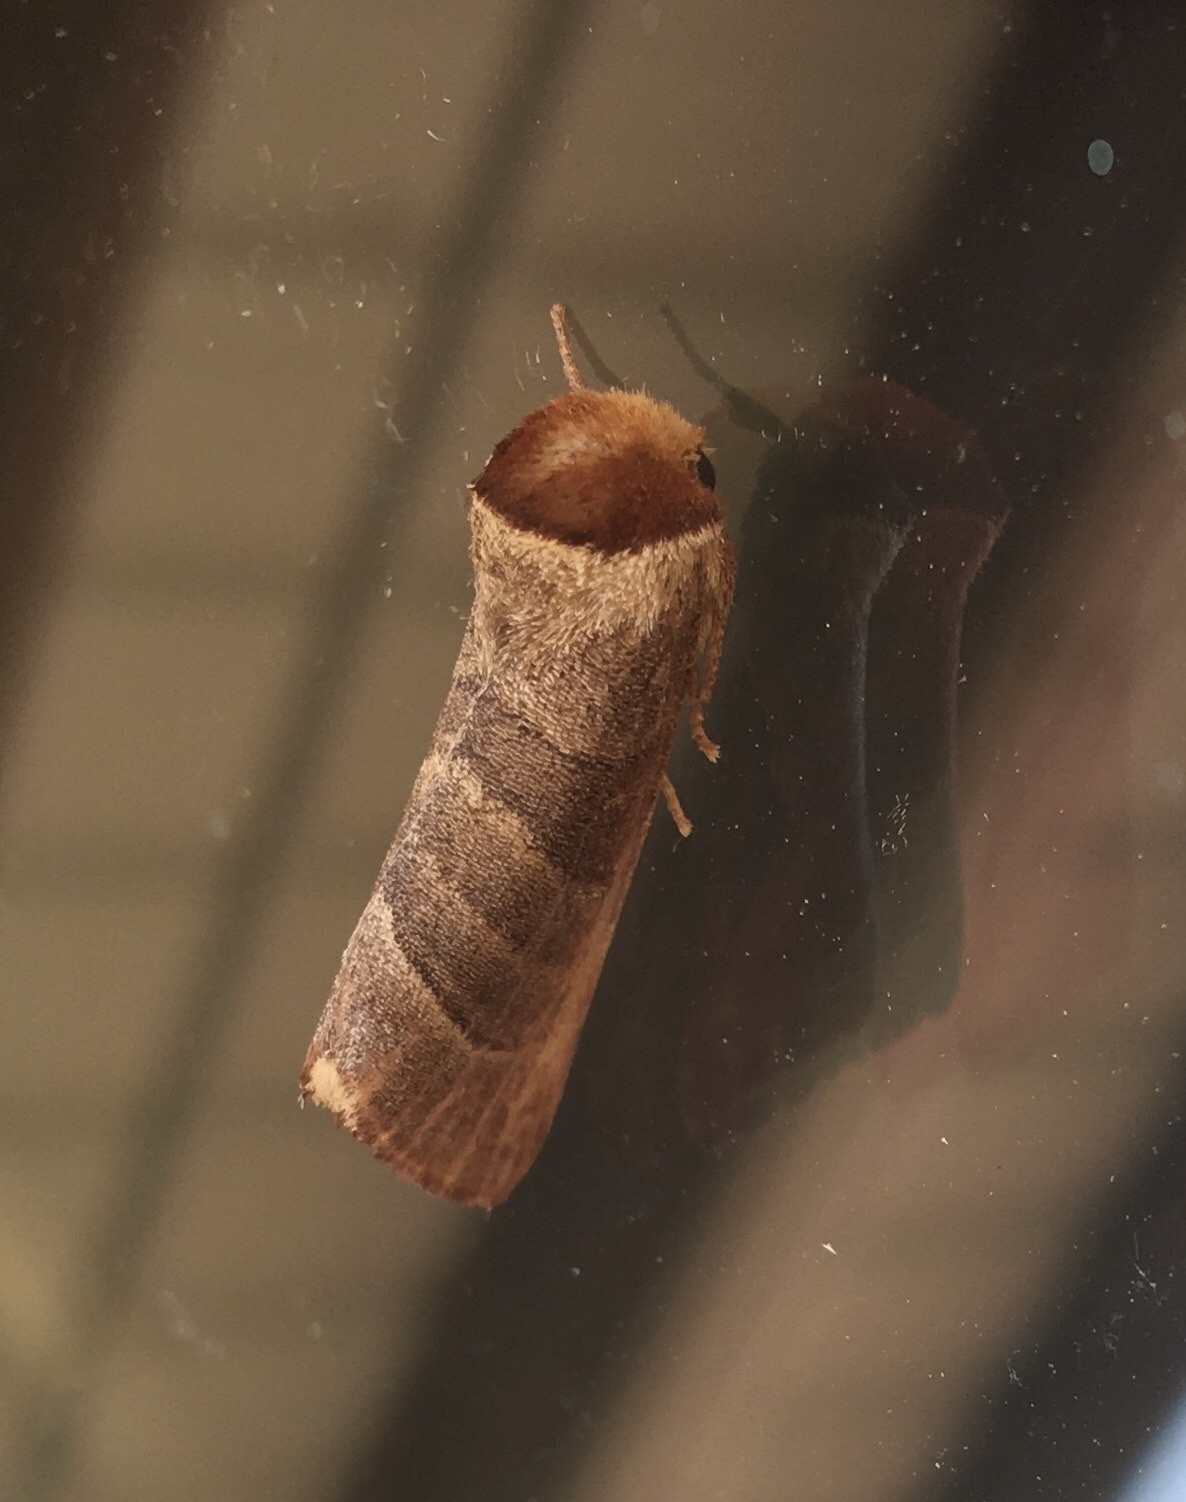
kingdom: Animalia
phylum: Arthropoda
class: Insecta
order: Lepidoptera
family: Notodontidae
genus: Datana
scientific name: Datana integerrima
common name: Walnut caterpillar
